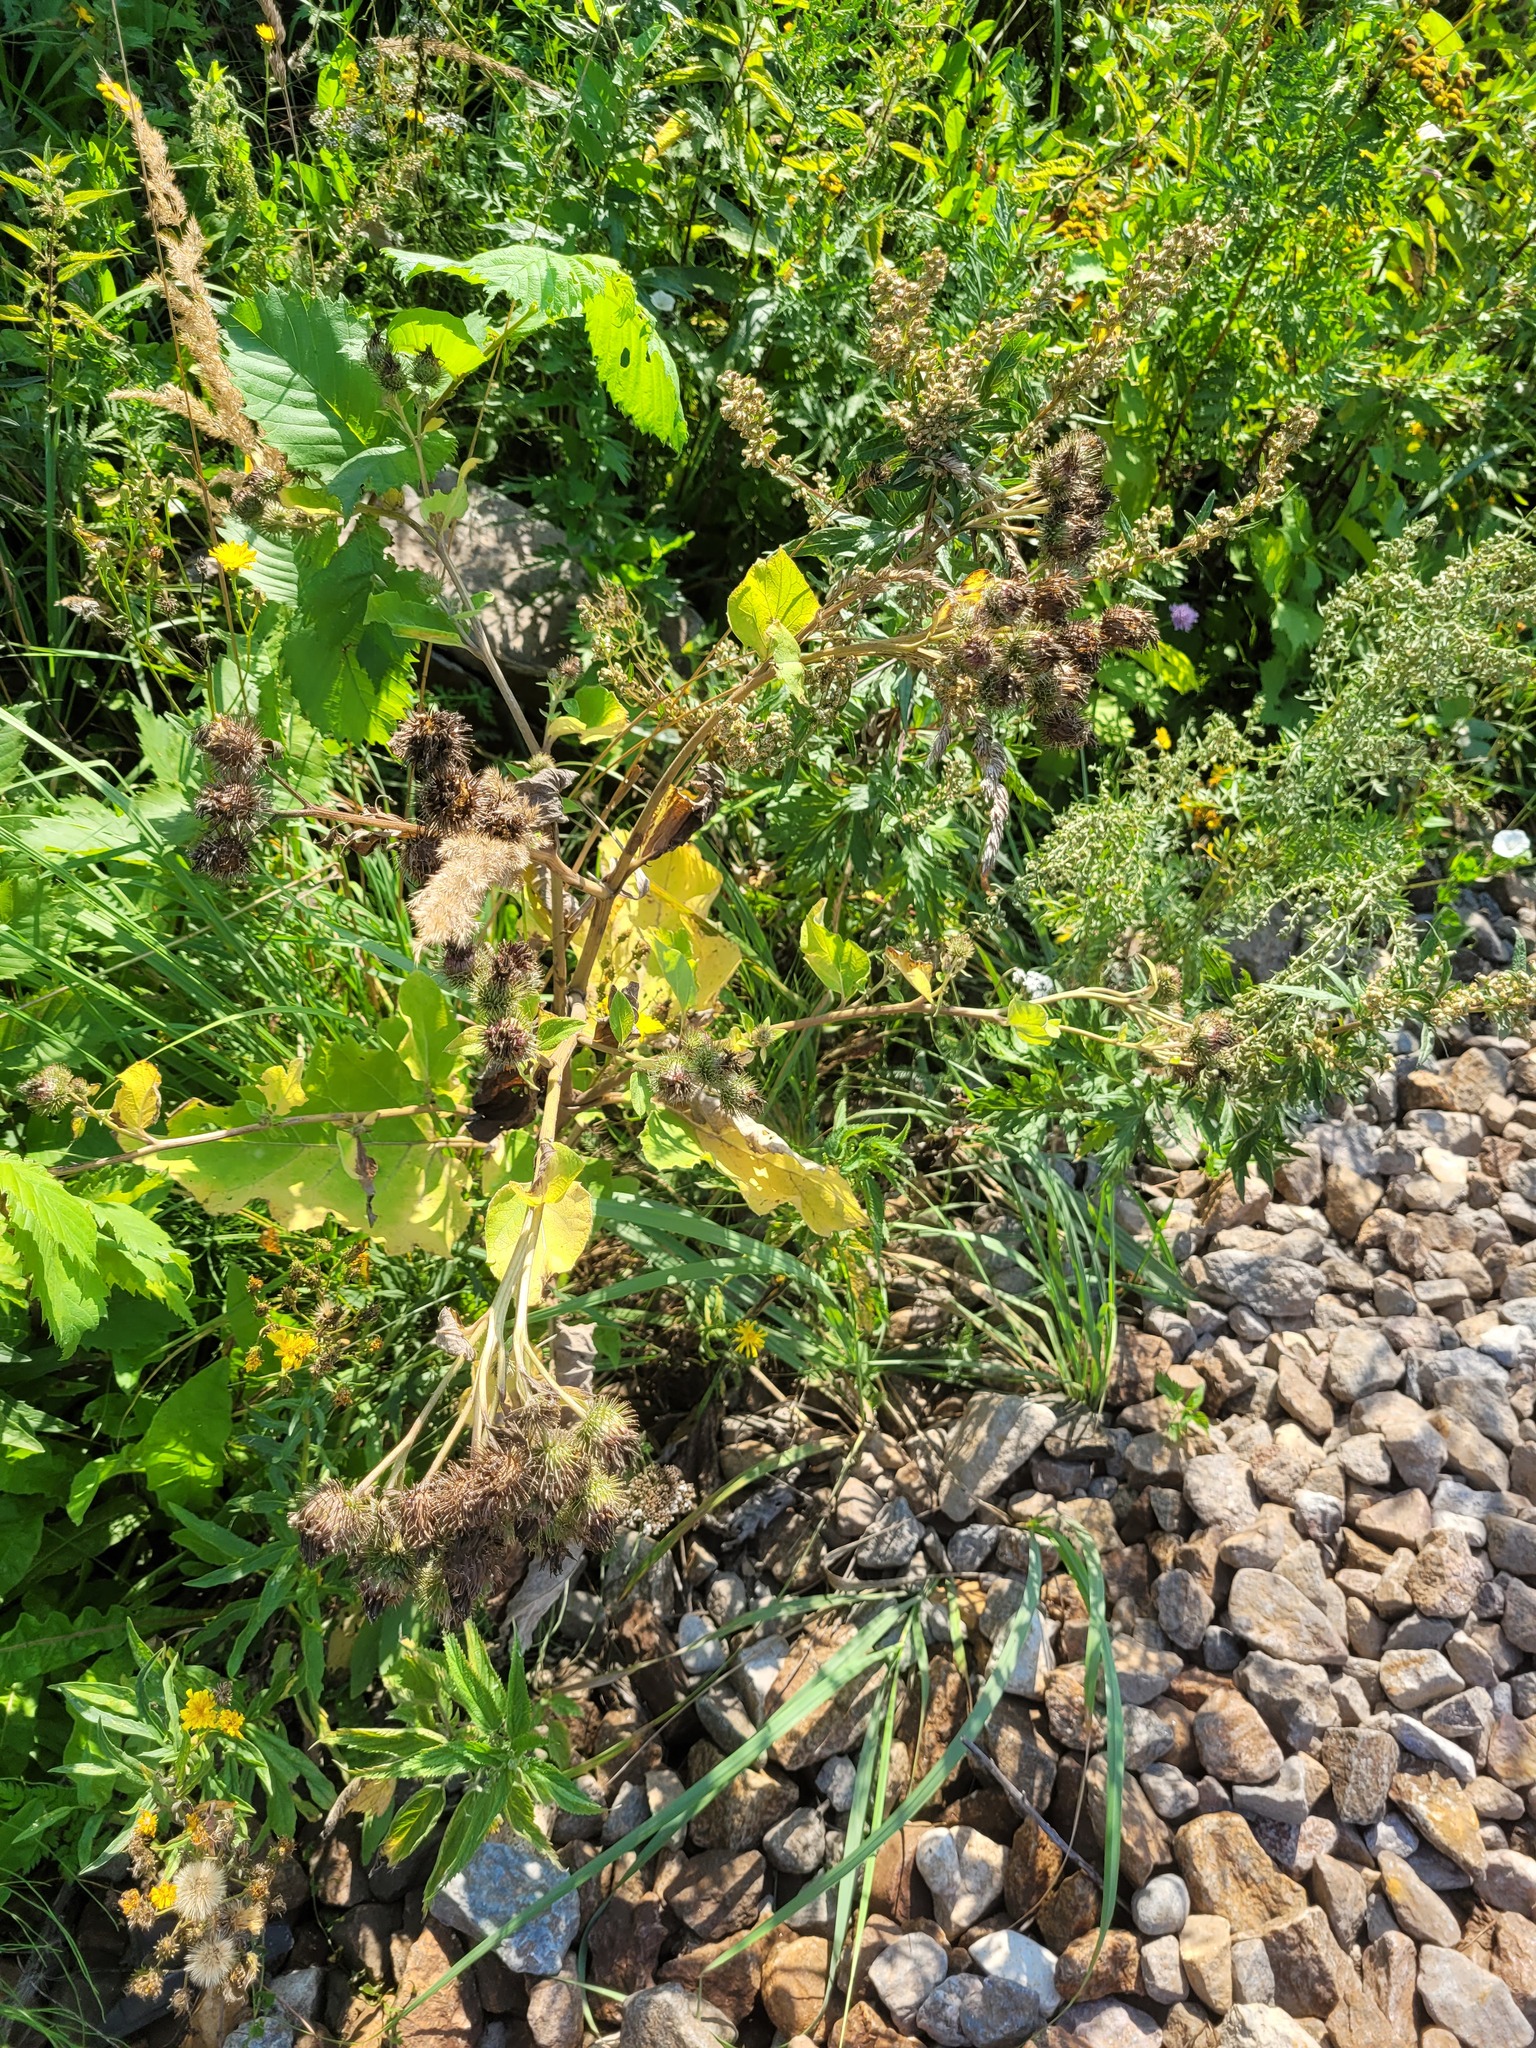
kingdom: Plantae
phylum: Tracheophyta
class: Magnoliopsida
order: Asterales
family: Asteraceae
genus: Arctium
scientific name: Arctium tomentosum
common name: Woolly burdock
